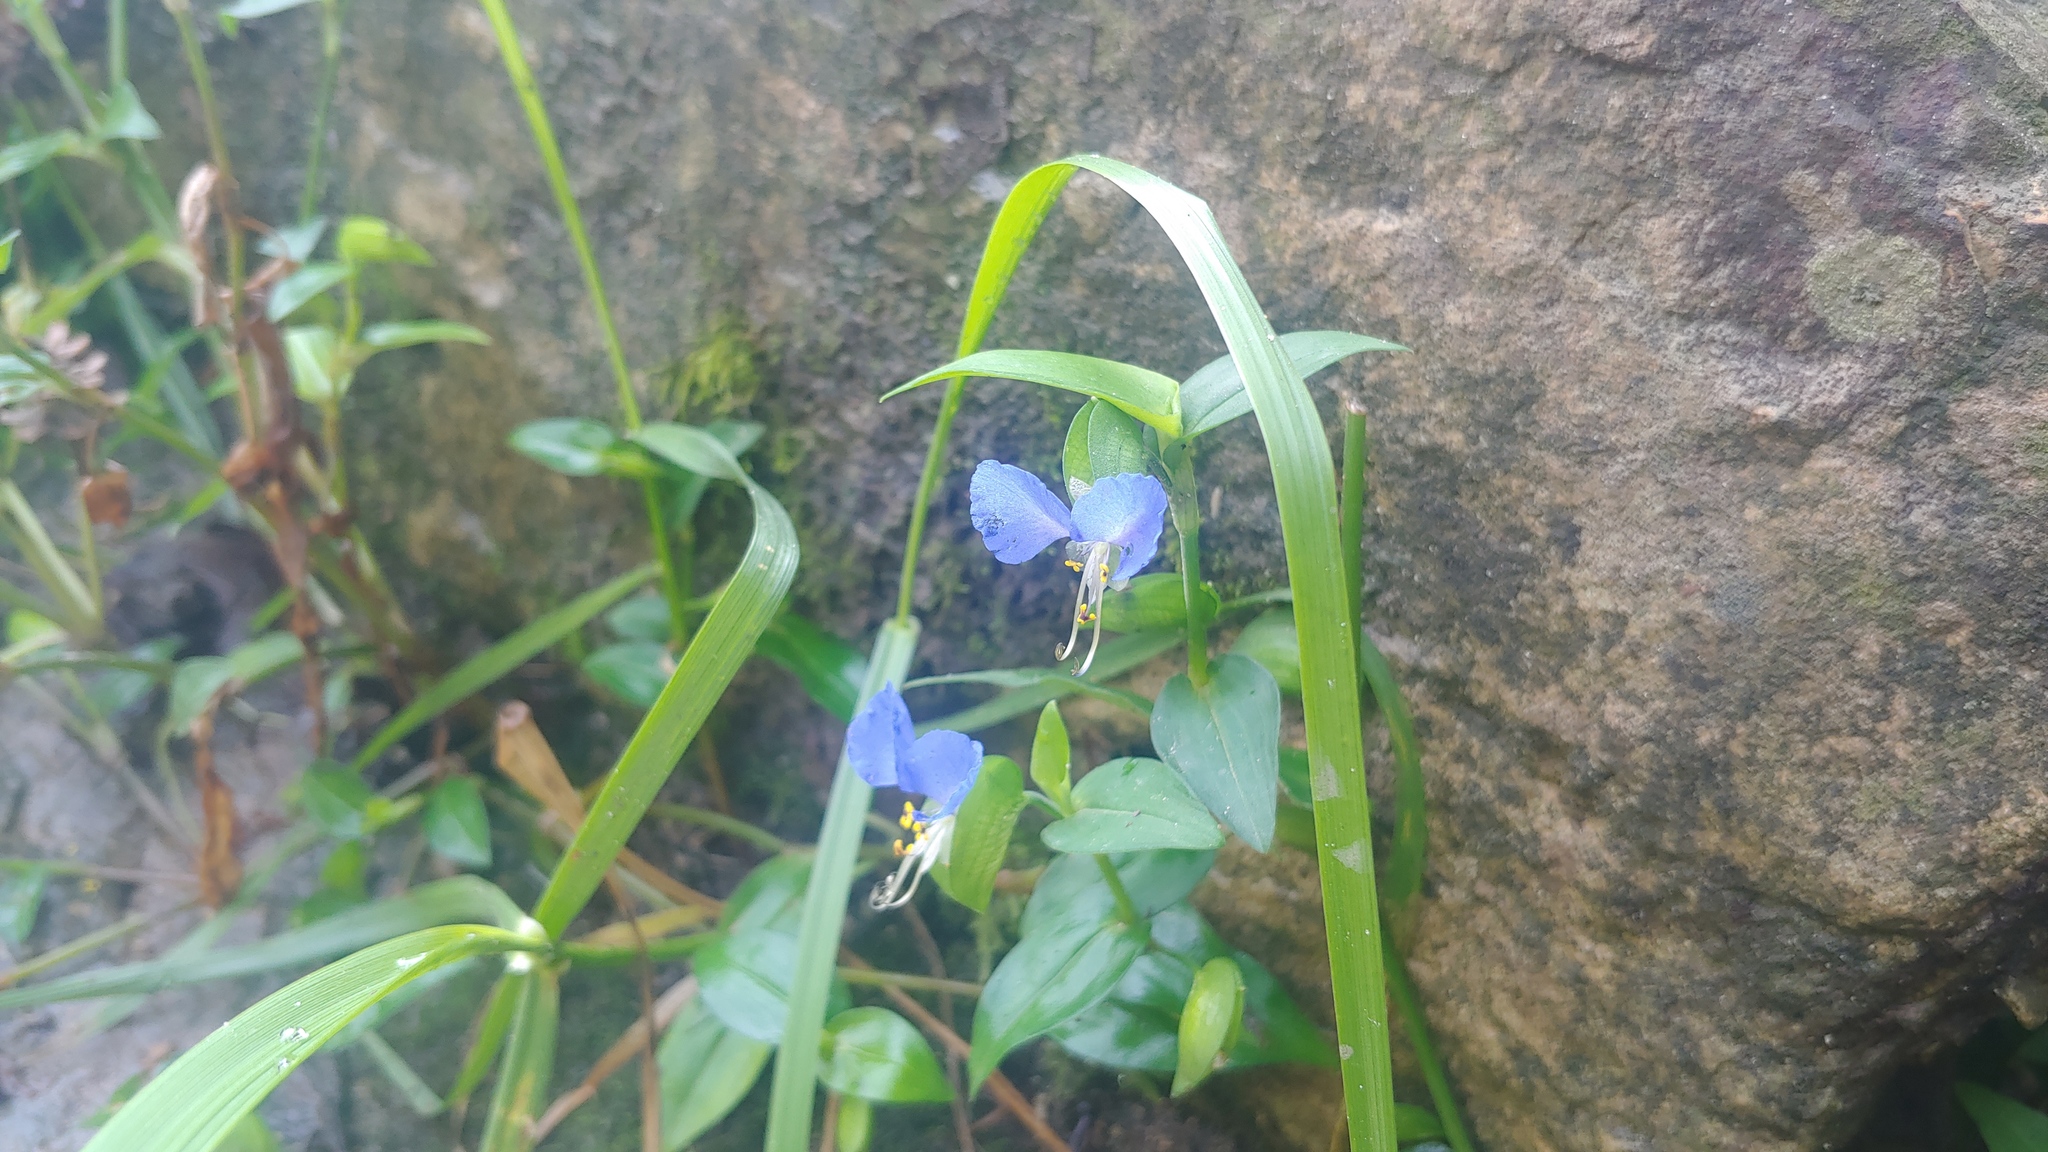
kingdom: Plantae
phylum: Tracheophyta
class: Liliopsida
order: Commelinales
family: Commelinaceae
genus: Commelina
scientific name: Commelina communis
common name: Asiatic dayflower
